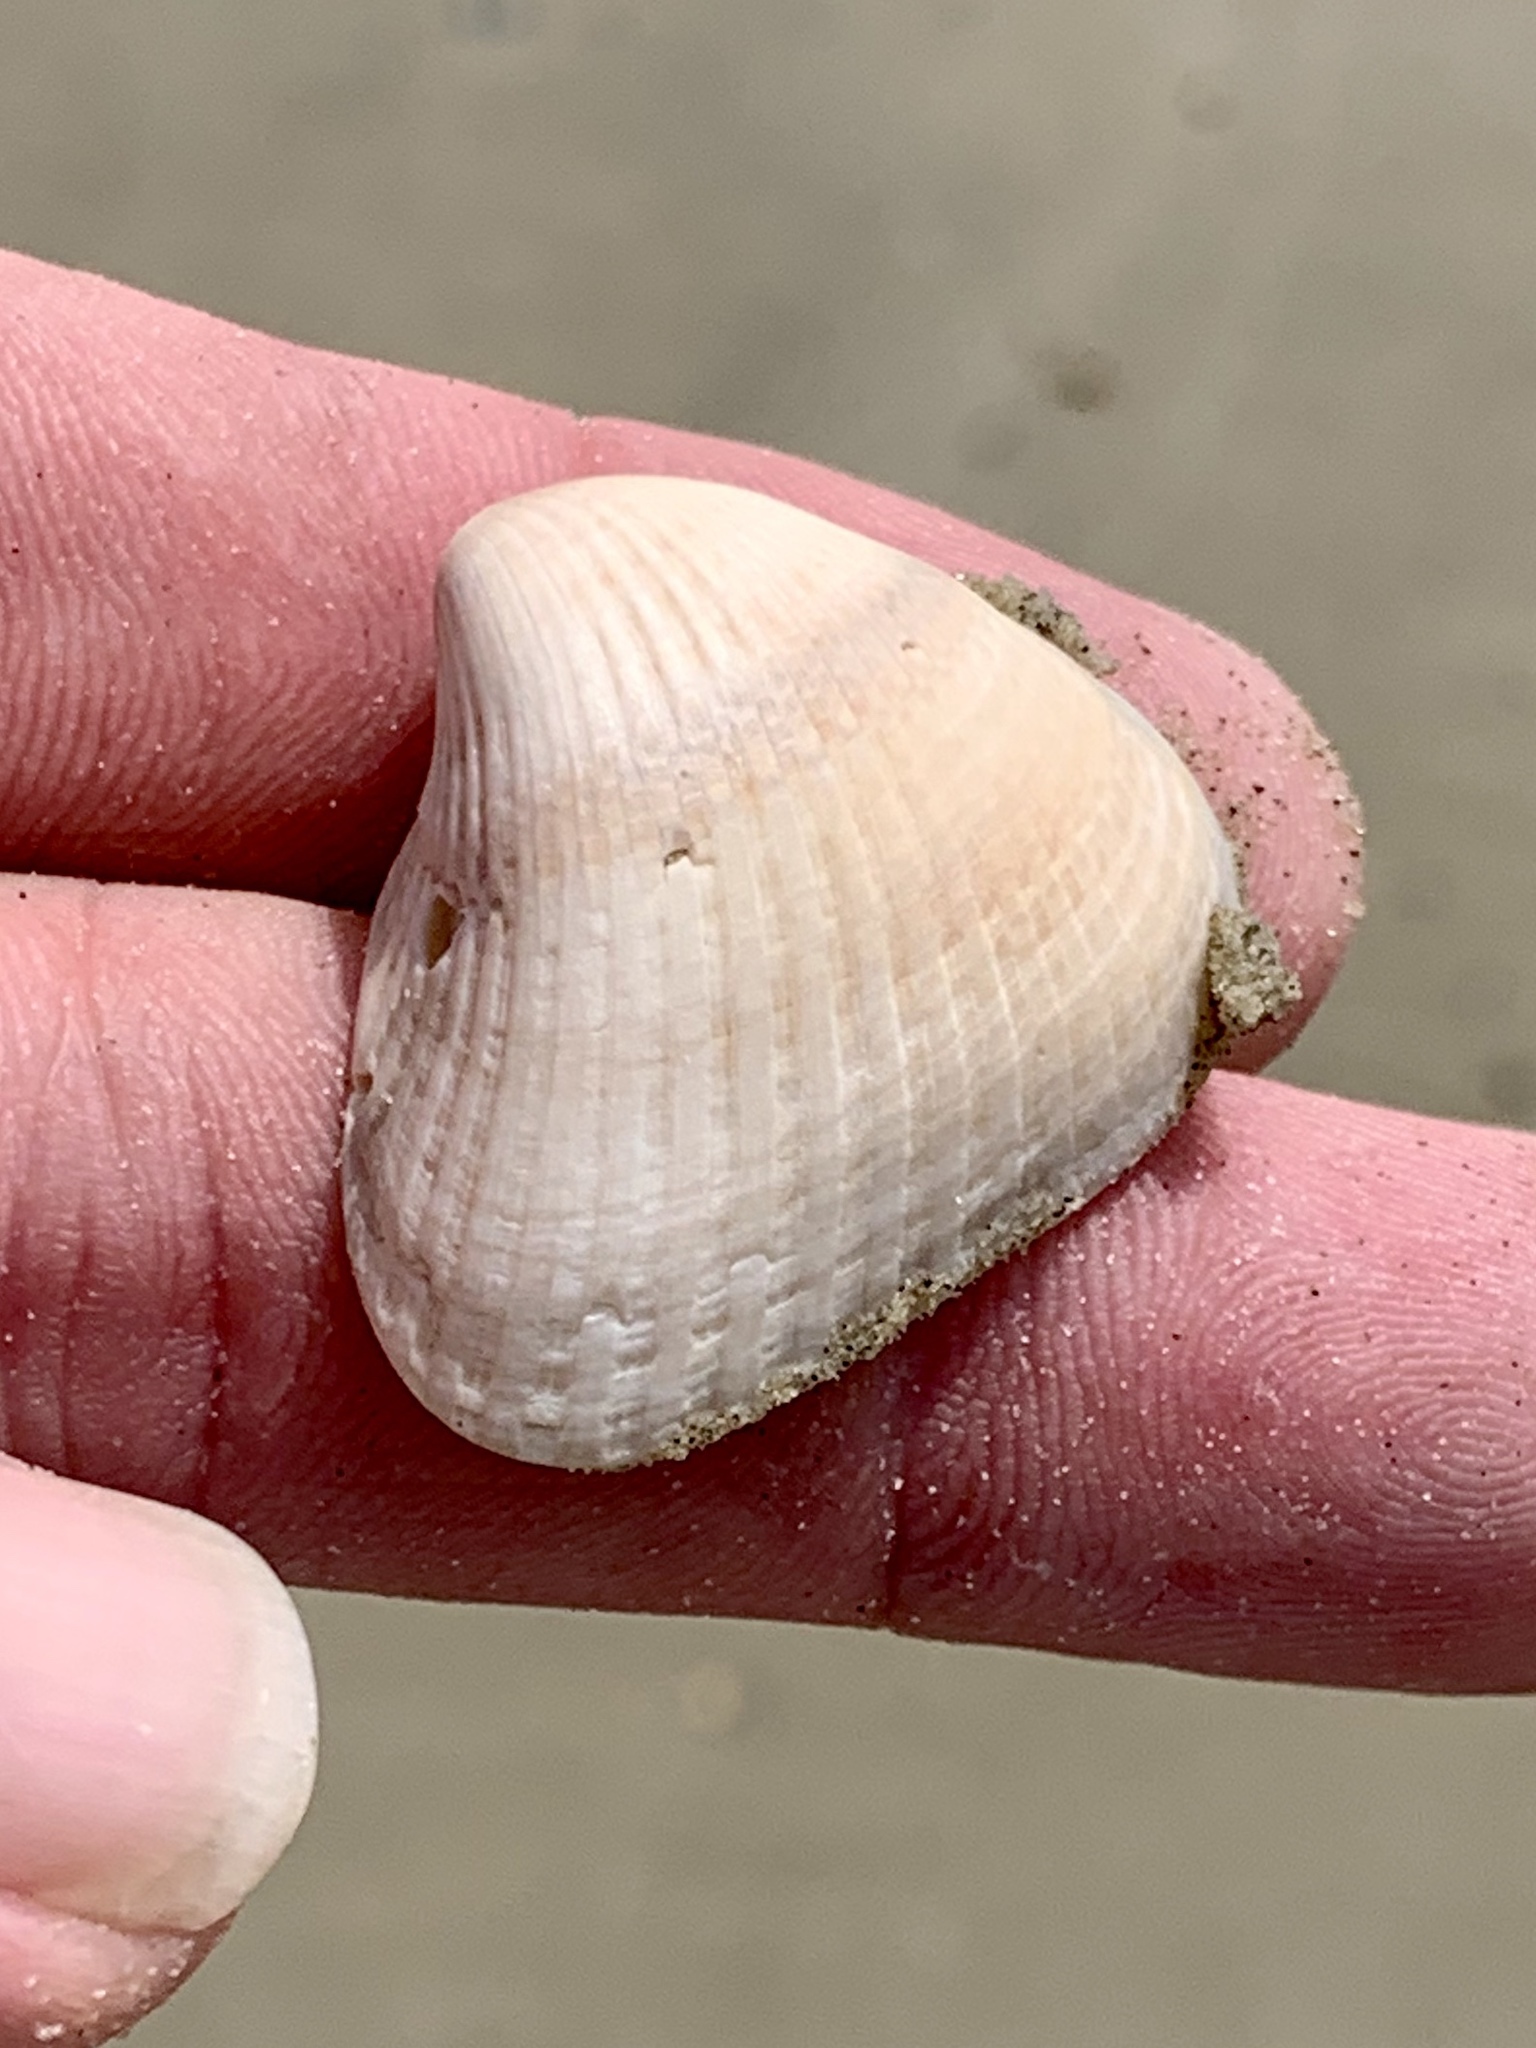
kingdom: Animalia
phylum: Mollusca
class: Bivalvia
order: Arcida
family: Noetiidae
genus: Noetia
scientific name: Noetia ponderosa
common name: Ponderous ark
